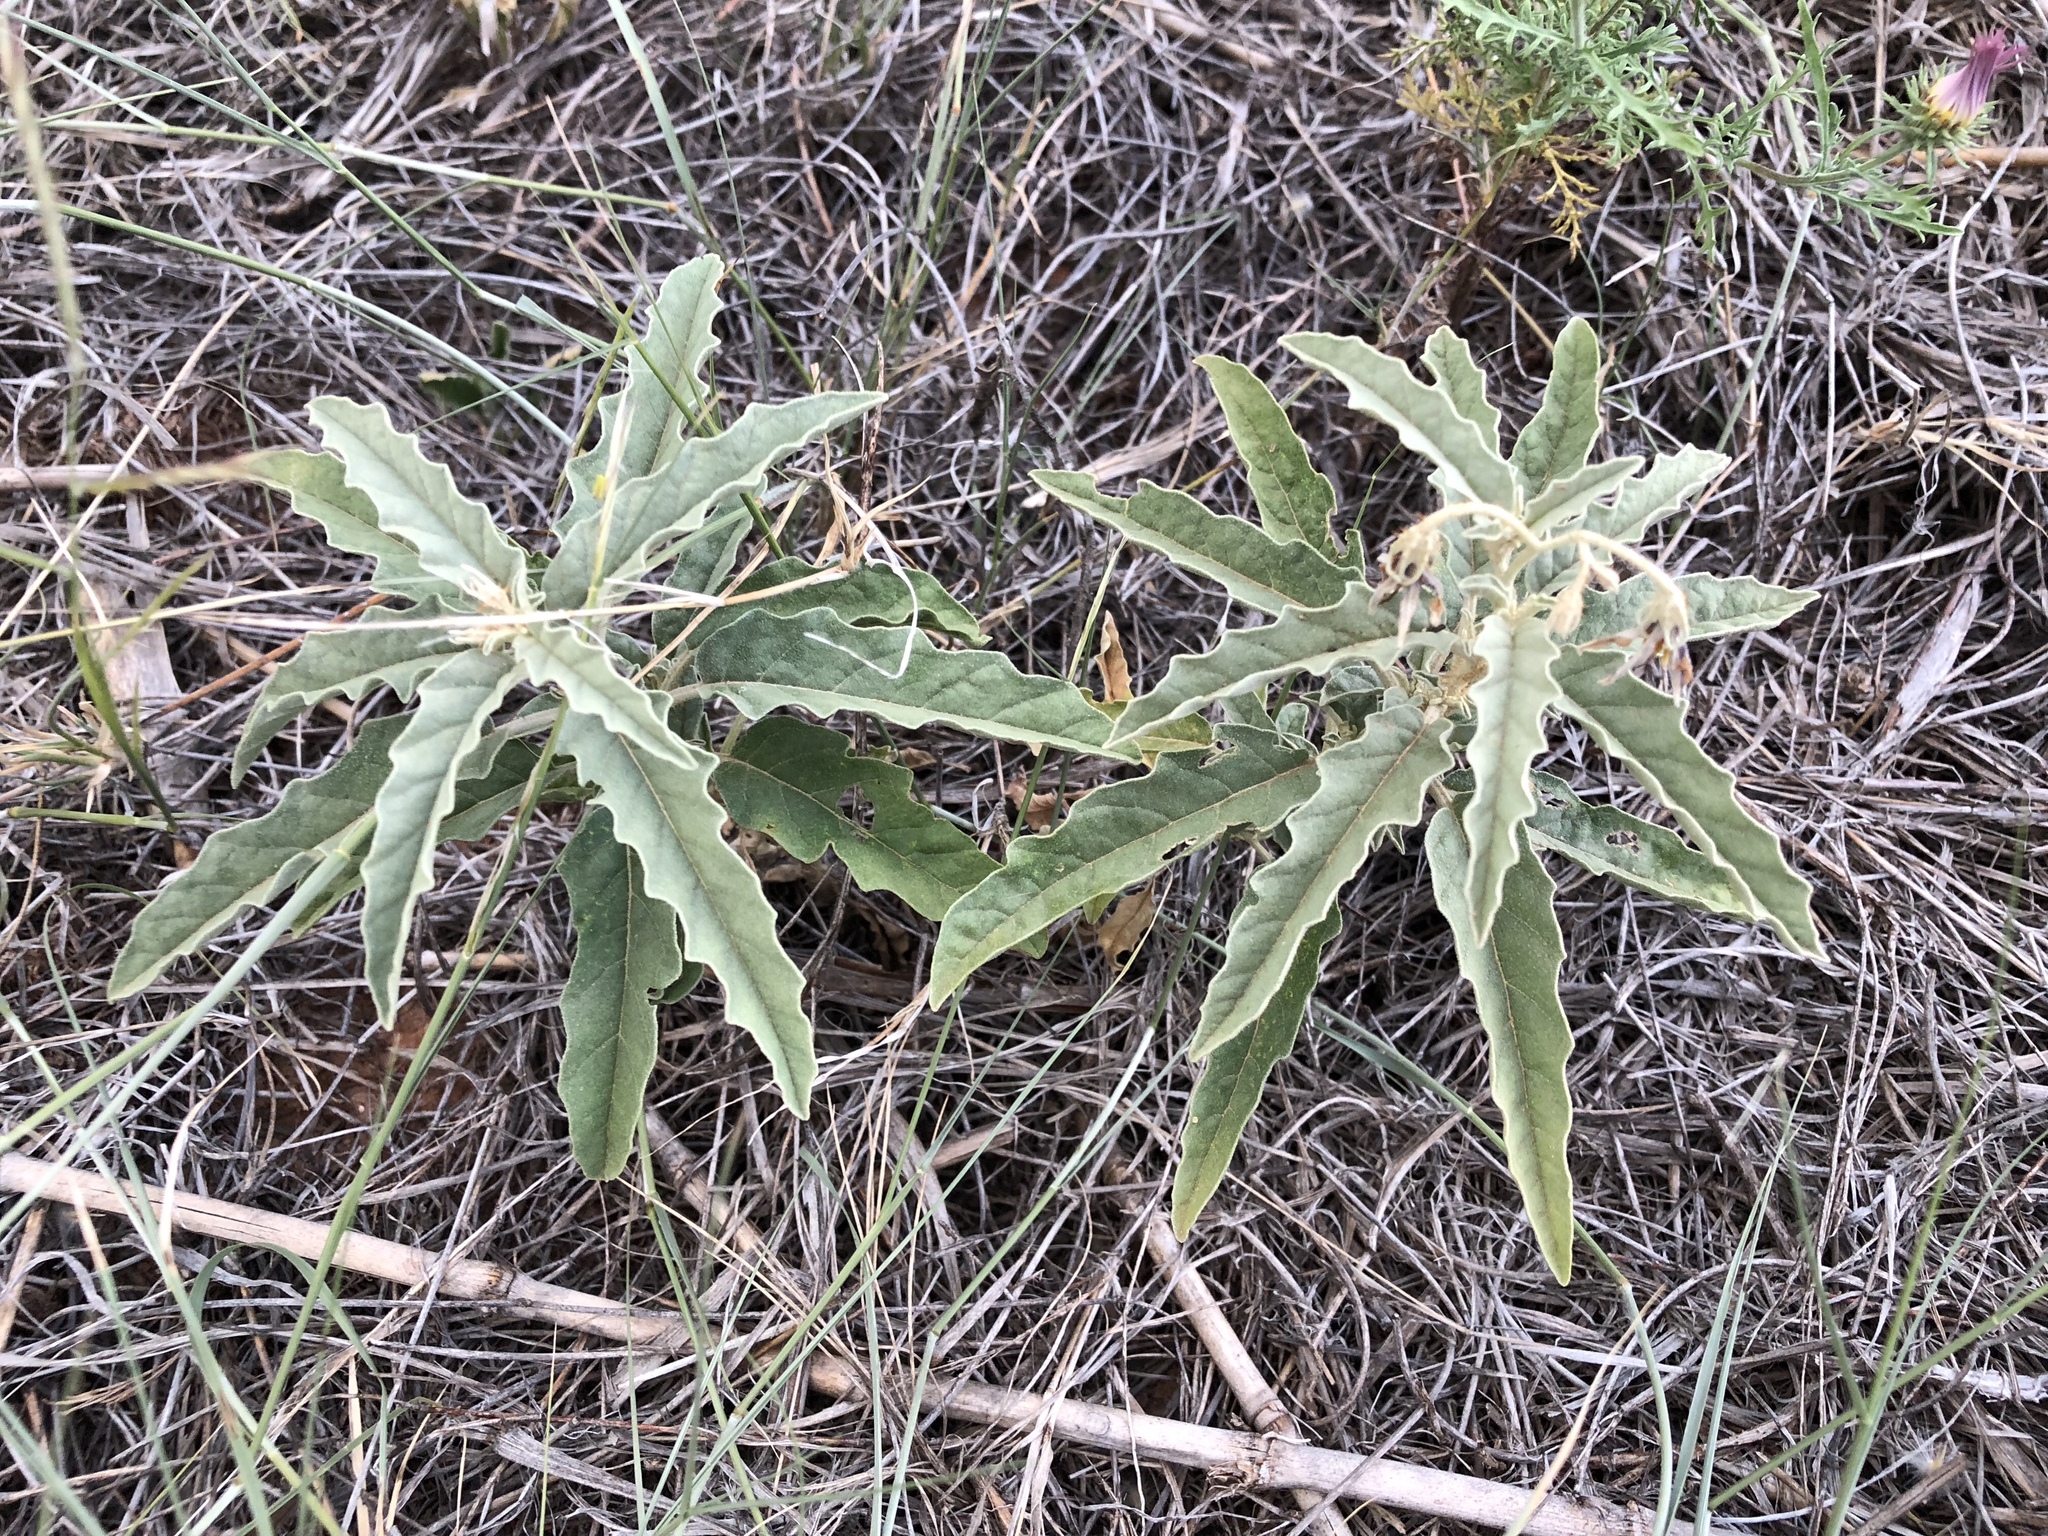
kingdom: Plantae
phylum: Tracheophyta
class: Magnoliopsida
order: Solanales
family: Solanaceae
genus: Solanum
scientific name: Solanum elaeagnifolium
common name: Silverleaf nightshade
